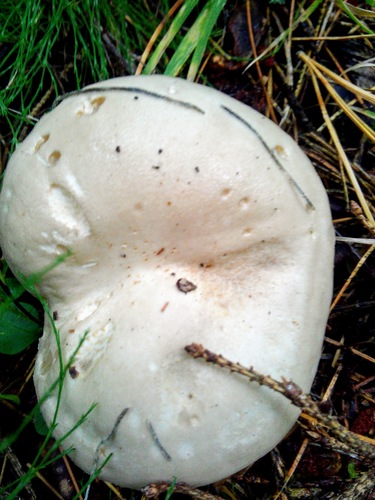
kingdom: Fungi
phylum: Basidiomycota
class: Agaricomycetes
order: Agaricales
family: Hygrophoraceae
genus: Hygrophorus
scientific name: Hygrophorus agathosmus
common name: Almond woodwax
